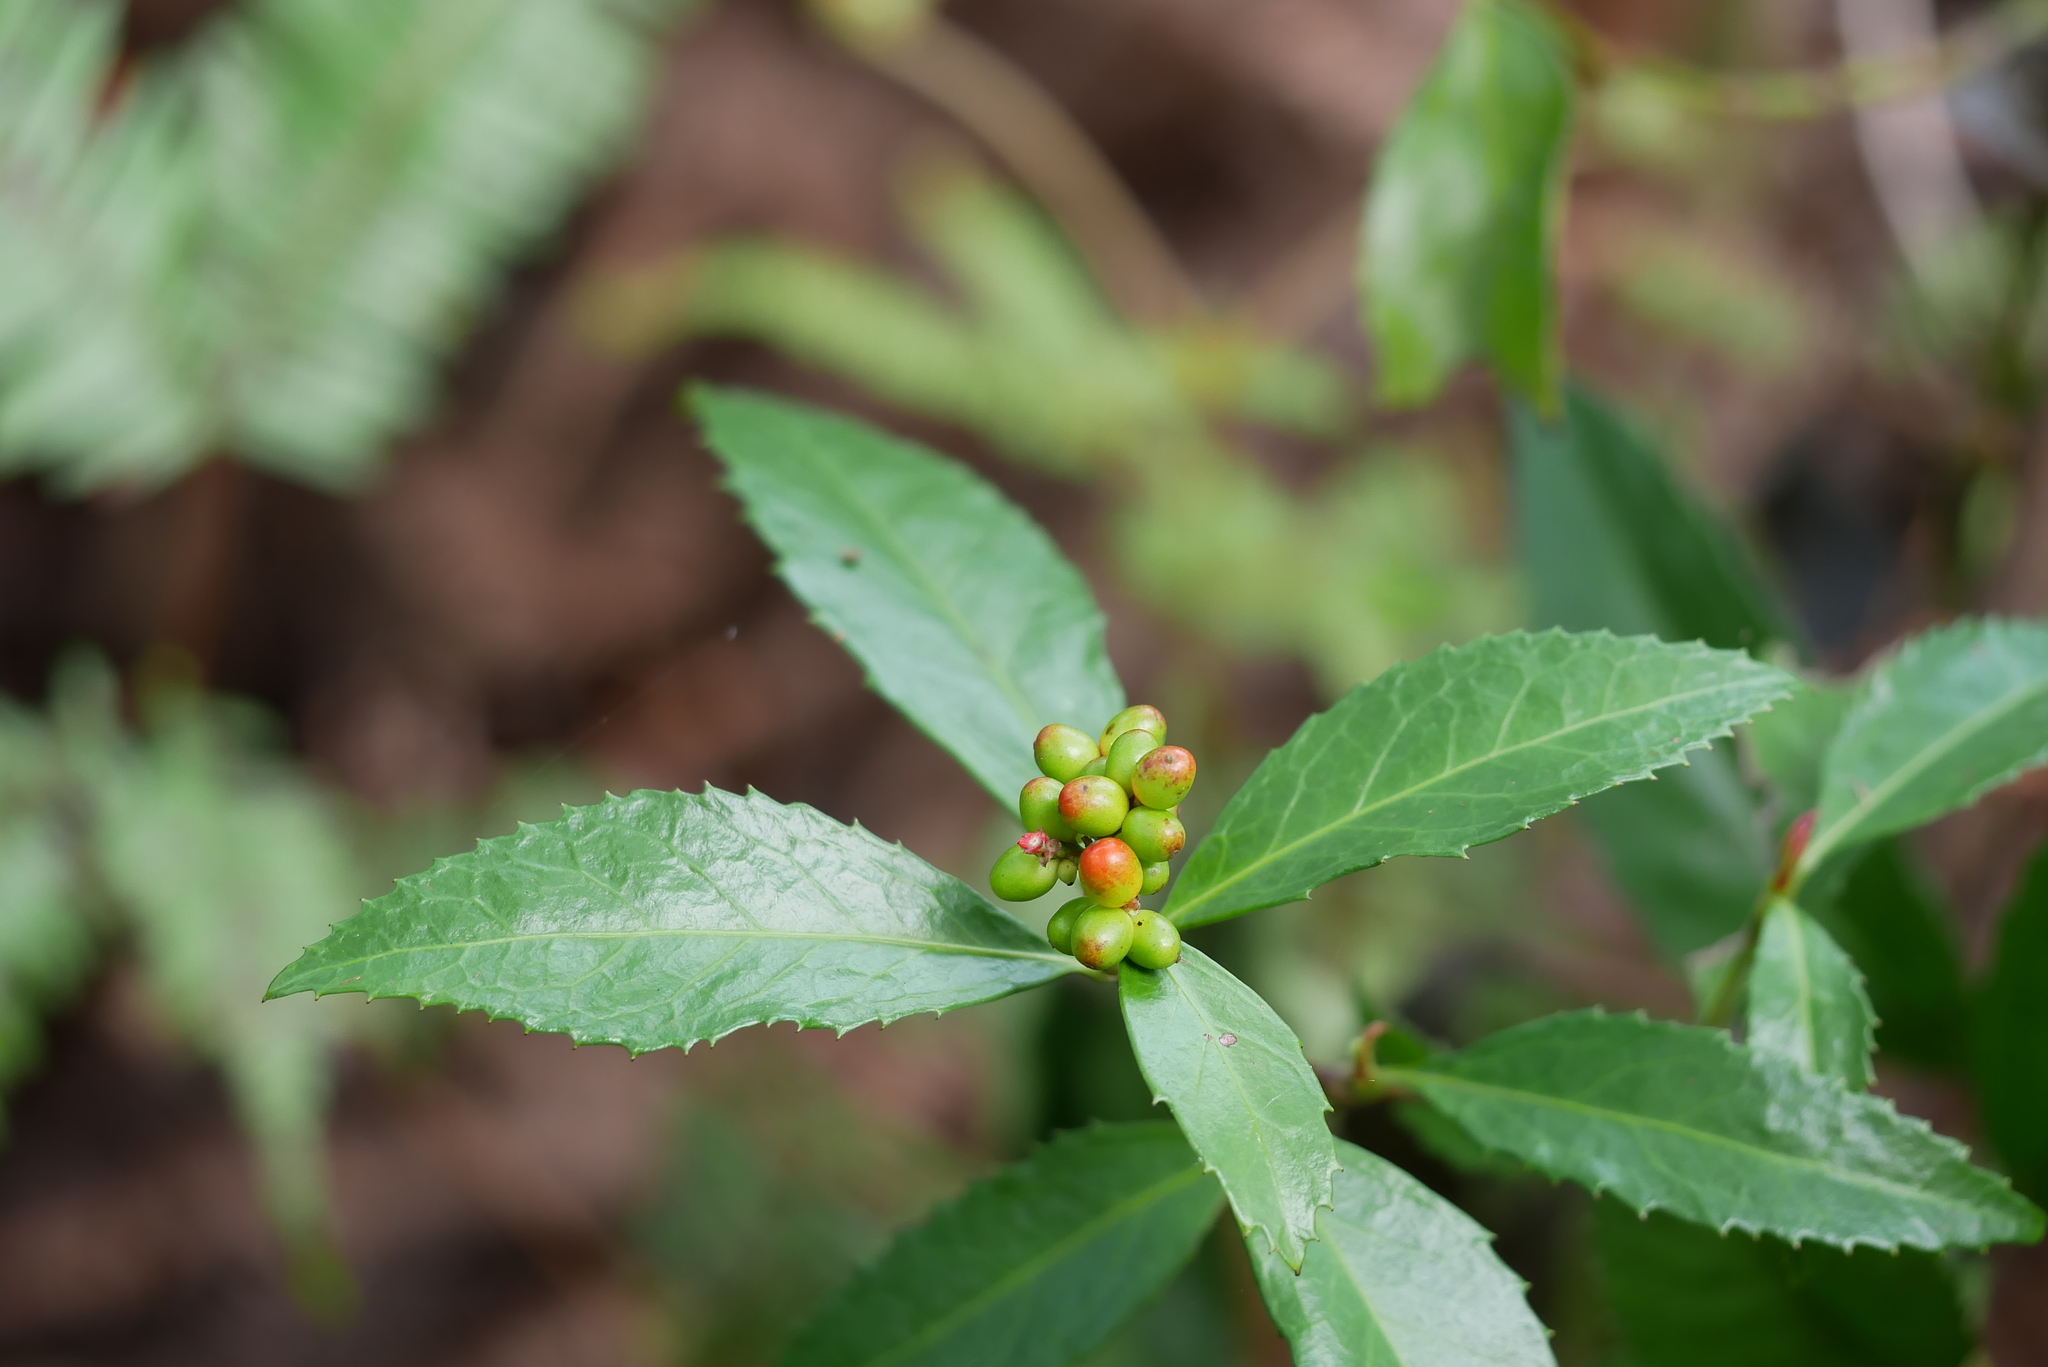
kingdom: Plantae
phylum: Tracheophyta
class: Magnoliopsida
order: Chloranthales
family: Chloranthaceae
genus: Sarcandra
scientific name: Sarcandra glabra
